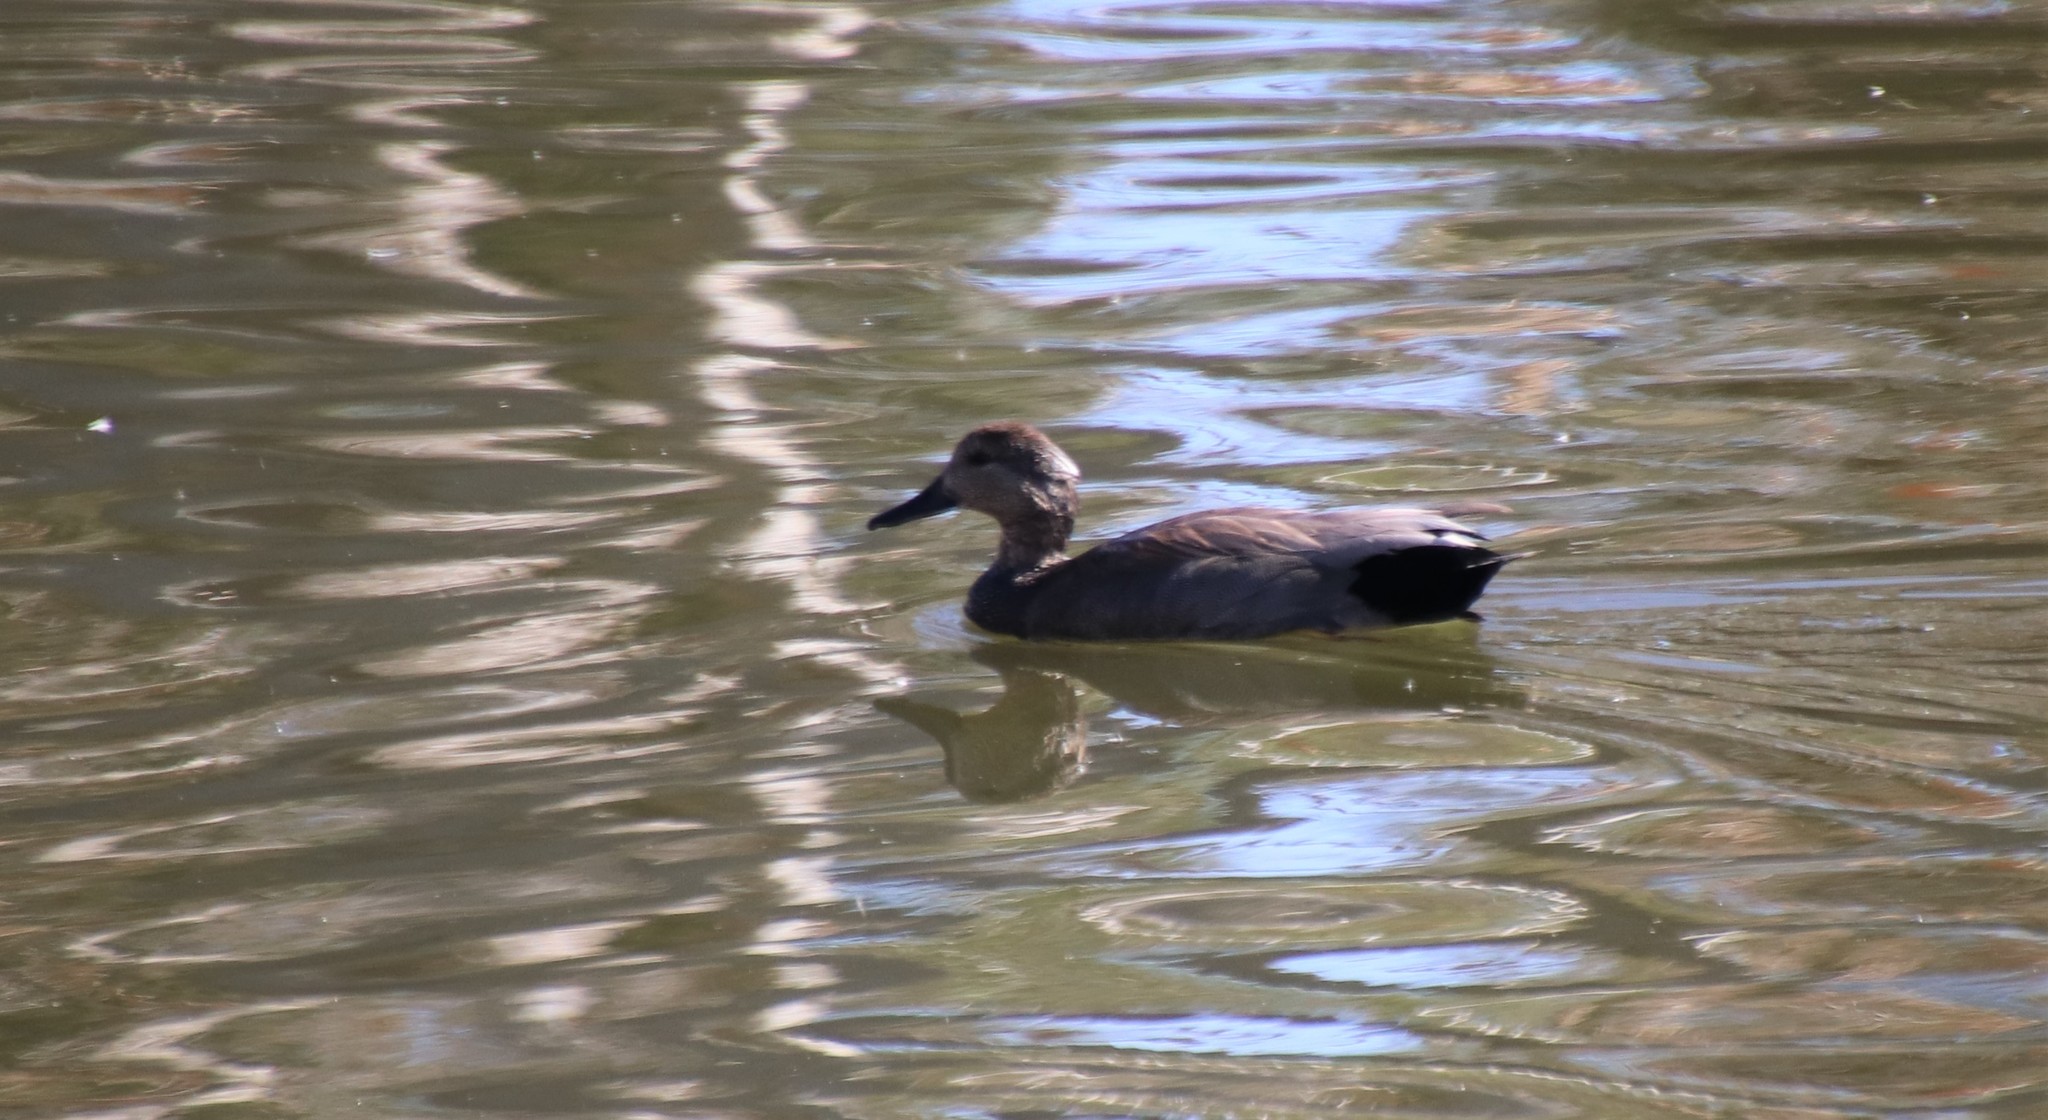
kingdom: Animalia
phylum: Chordata
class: Aves
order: Anseriformes
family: Anatidae
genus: Mareca
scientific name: Mareca strepera
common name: Gadwall
